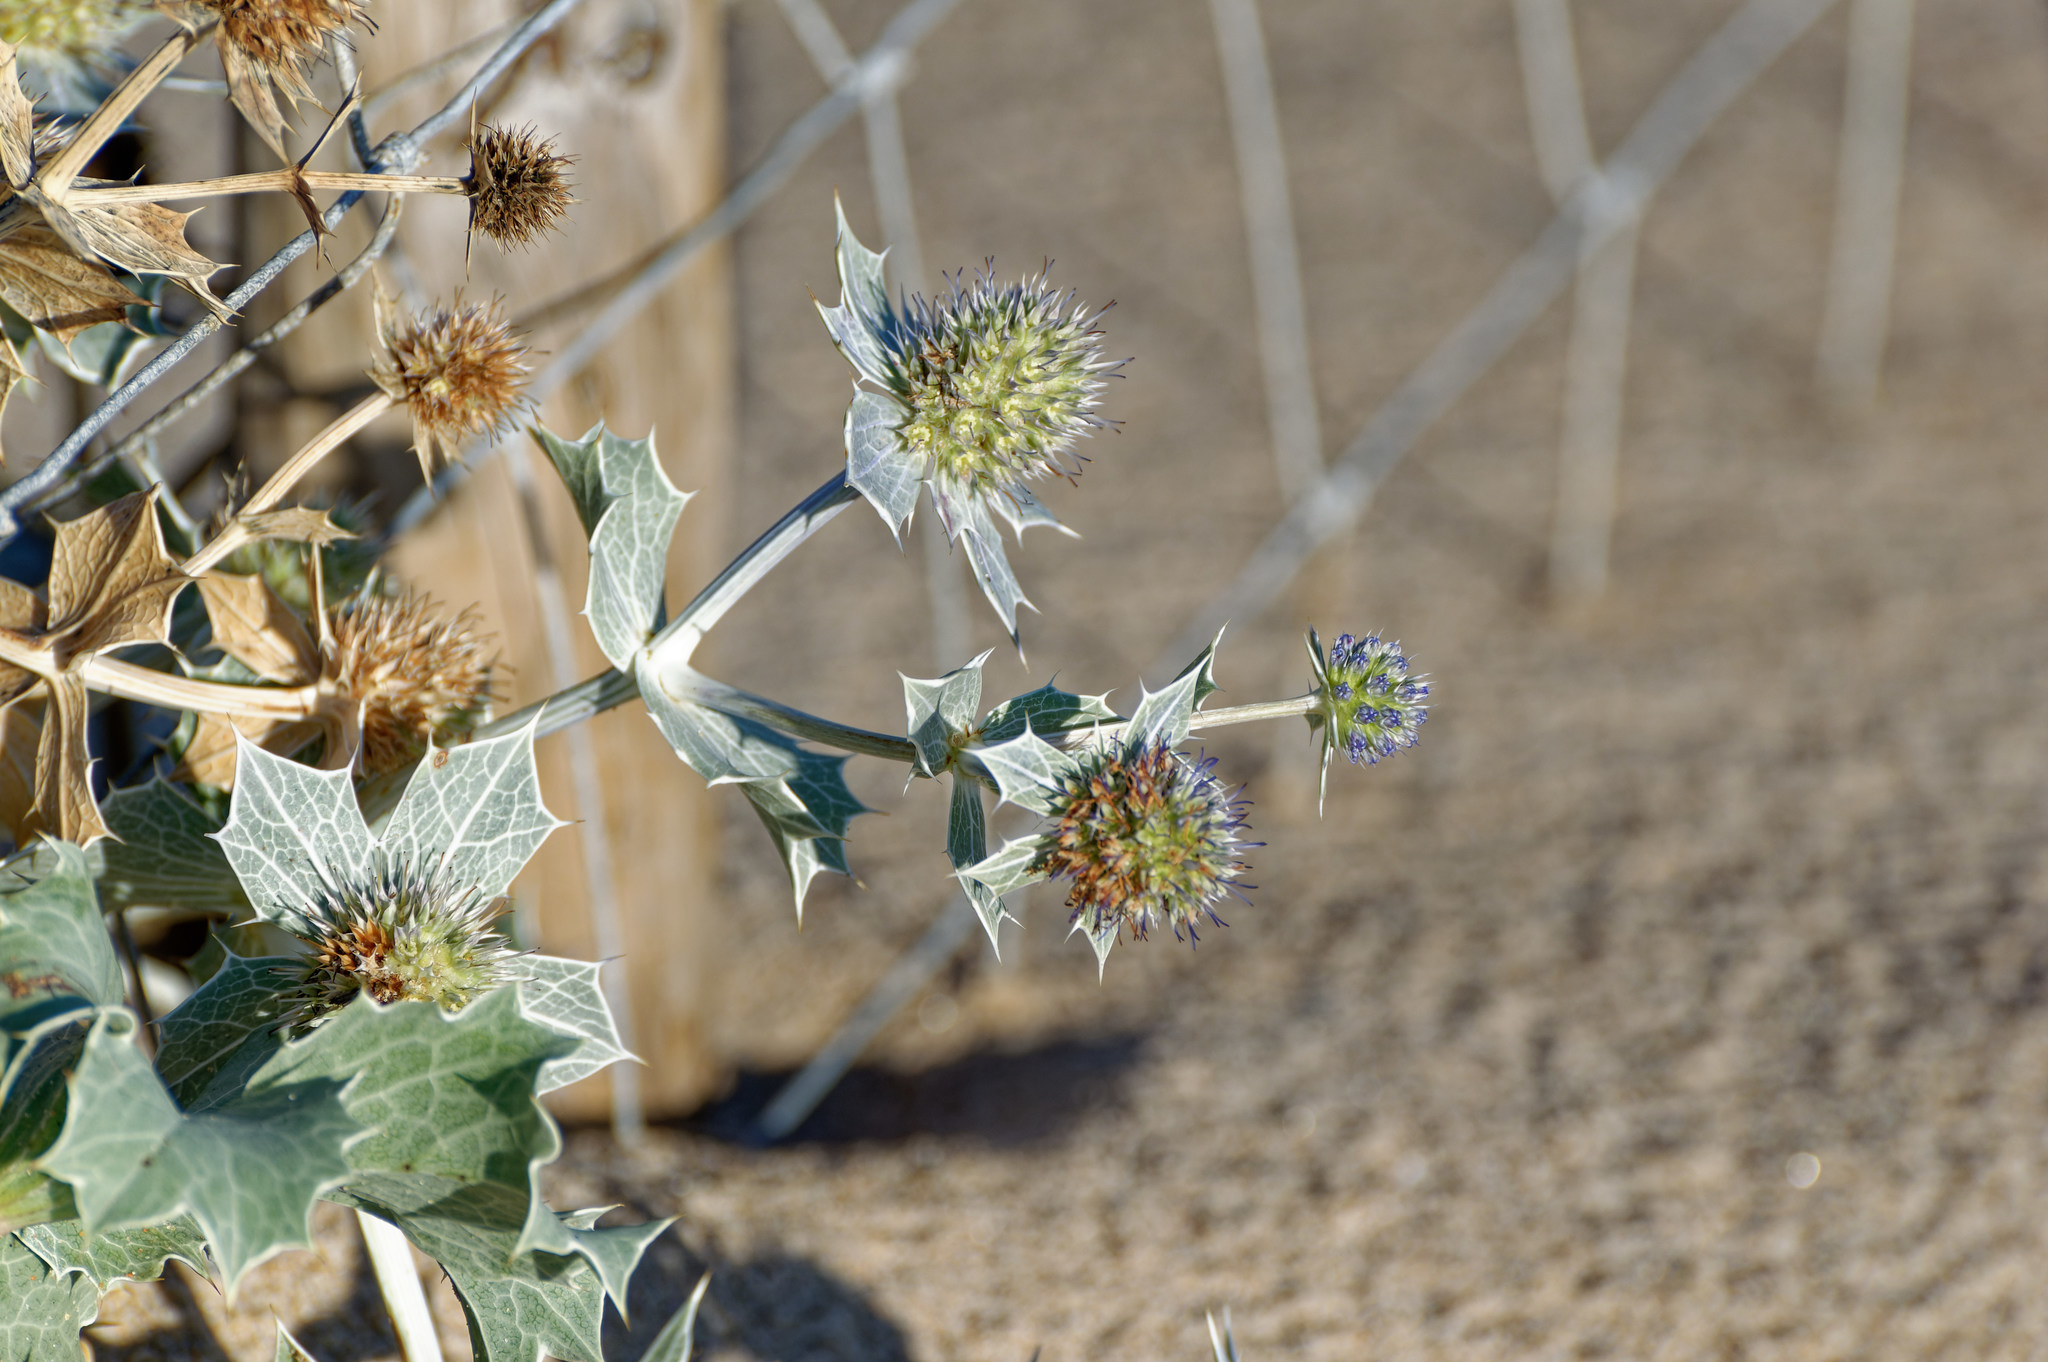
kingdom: Plantae
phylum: Tracheophyta
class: Magnoliopsida
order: Apiales
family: Apiaceae
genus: Eryngium
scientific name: Eryngium maritimum
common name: Sea-holly
